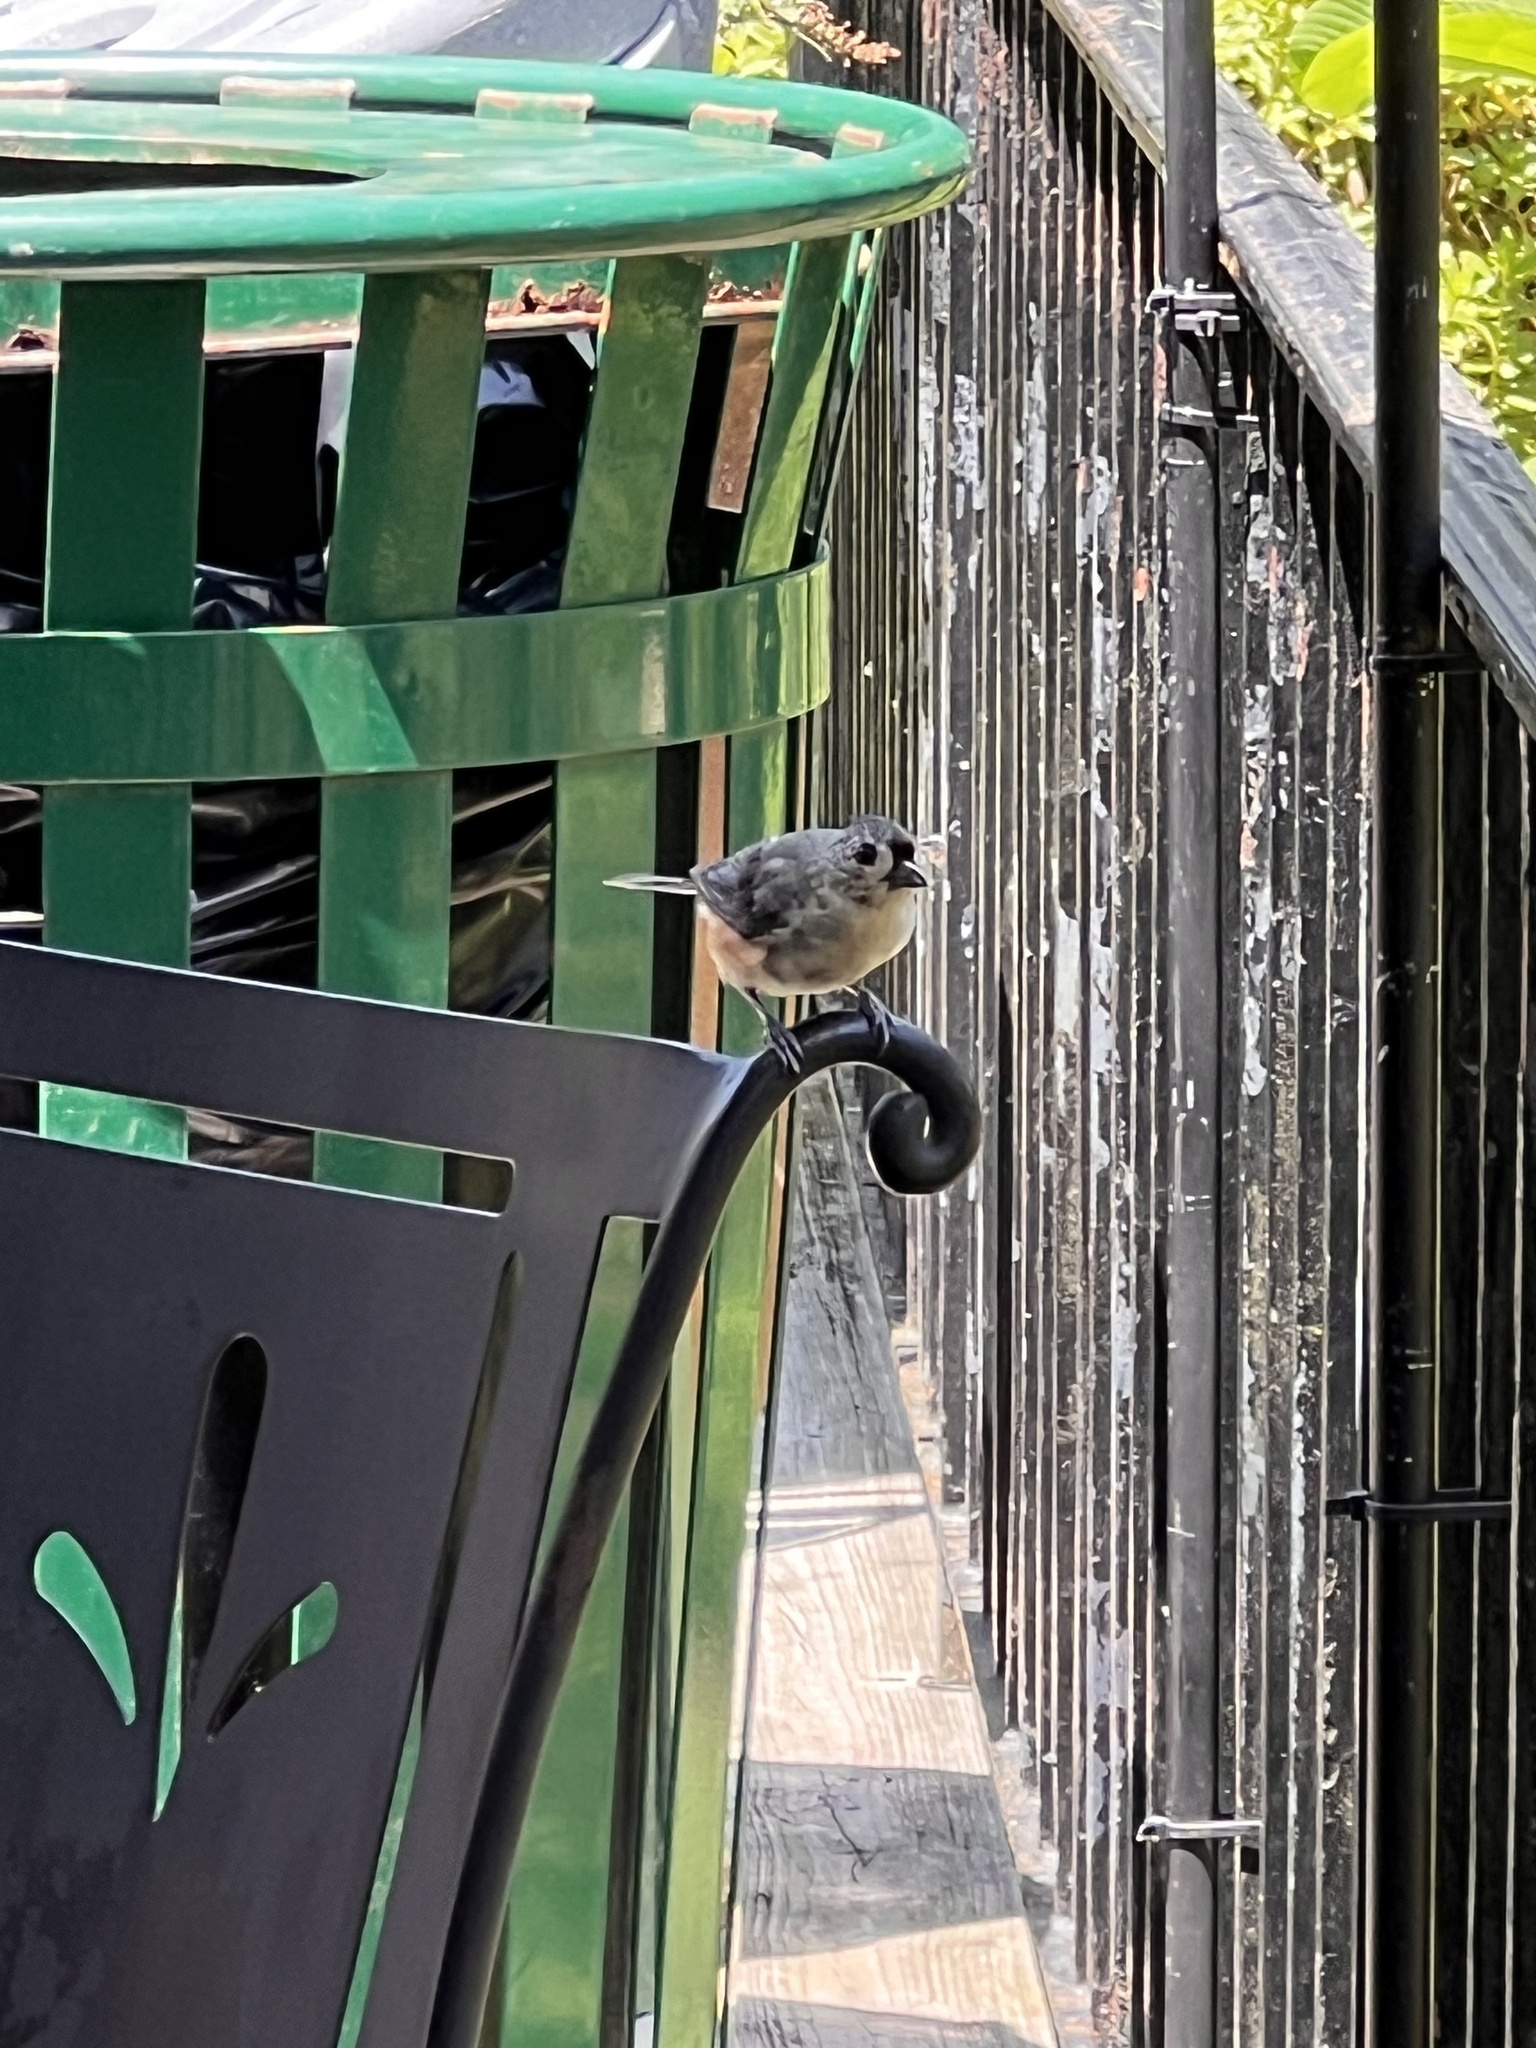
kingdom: Animalia
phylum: Chordata
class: Aves
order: Passeriformes
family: Paridae
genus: Baeolophus
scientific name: Baeolophus bicolor
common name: Tufted titmouse
